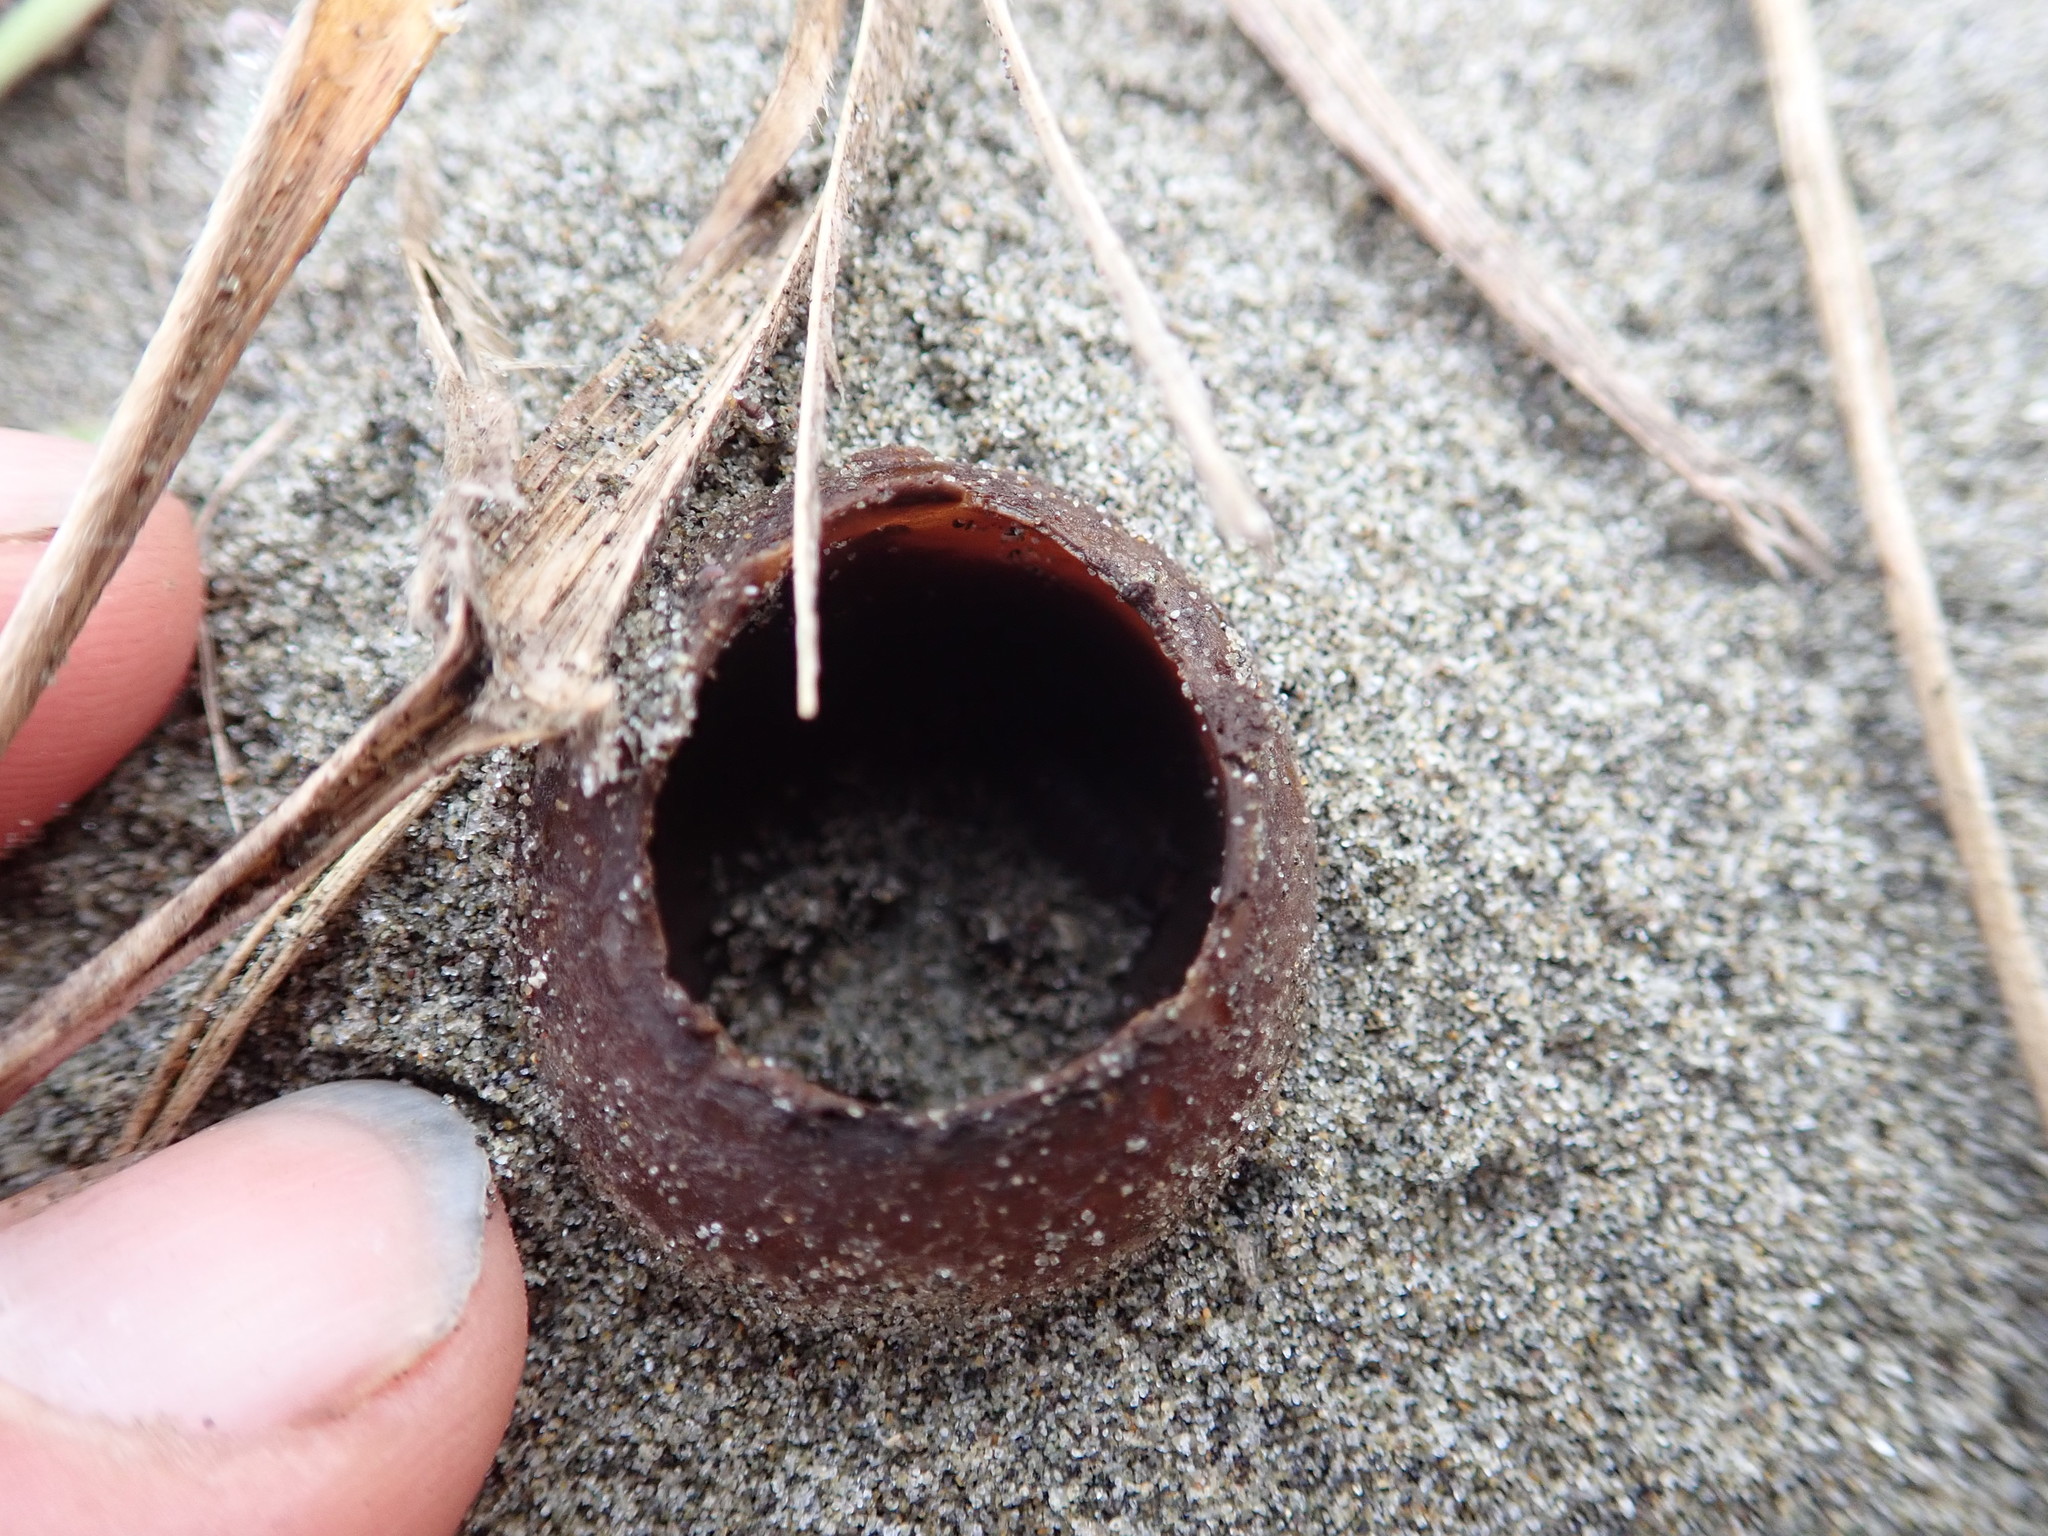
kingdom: Fungi
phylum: Ascomycota
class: Pezizomycetes
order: Pezizales
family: Pezizaceae
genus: Peziza
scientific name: Peziza oceanica
